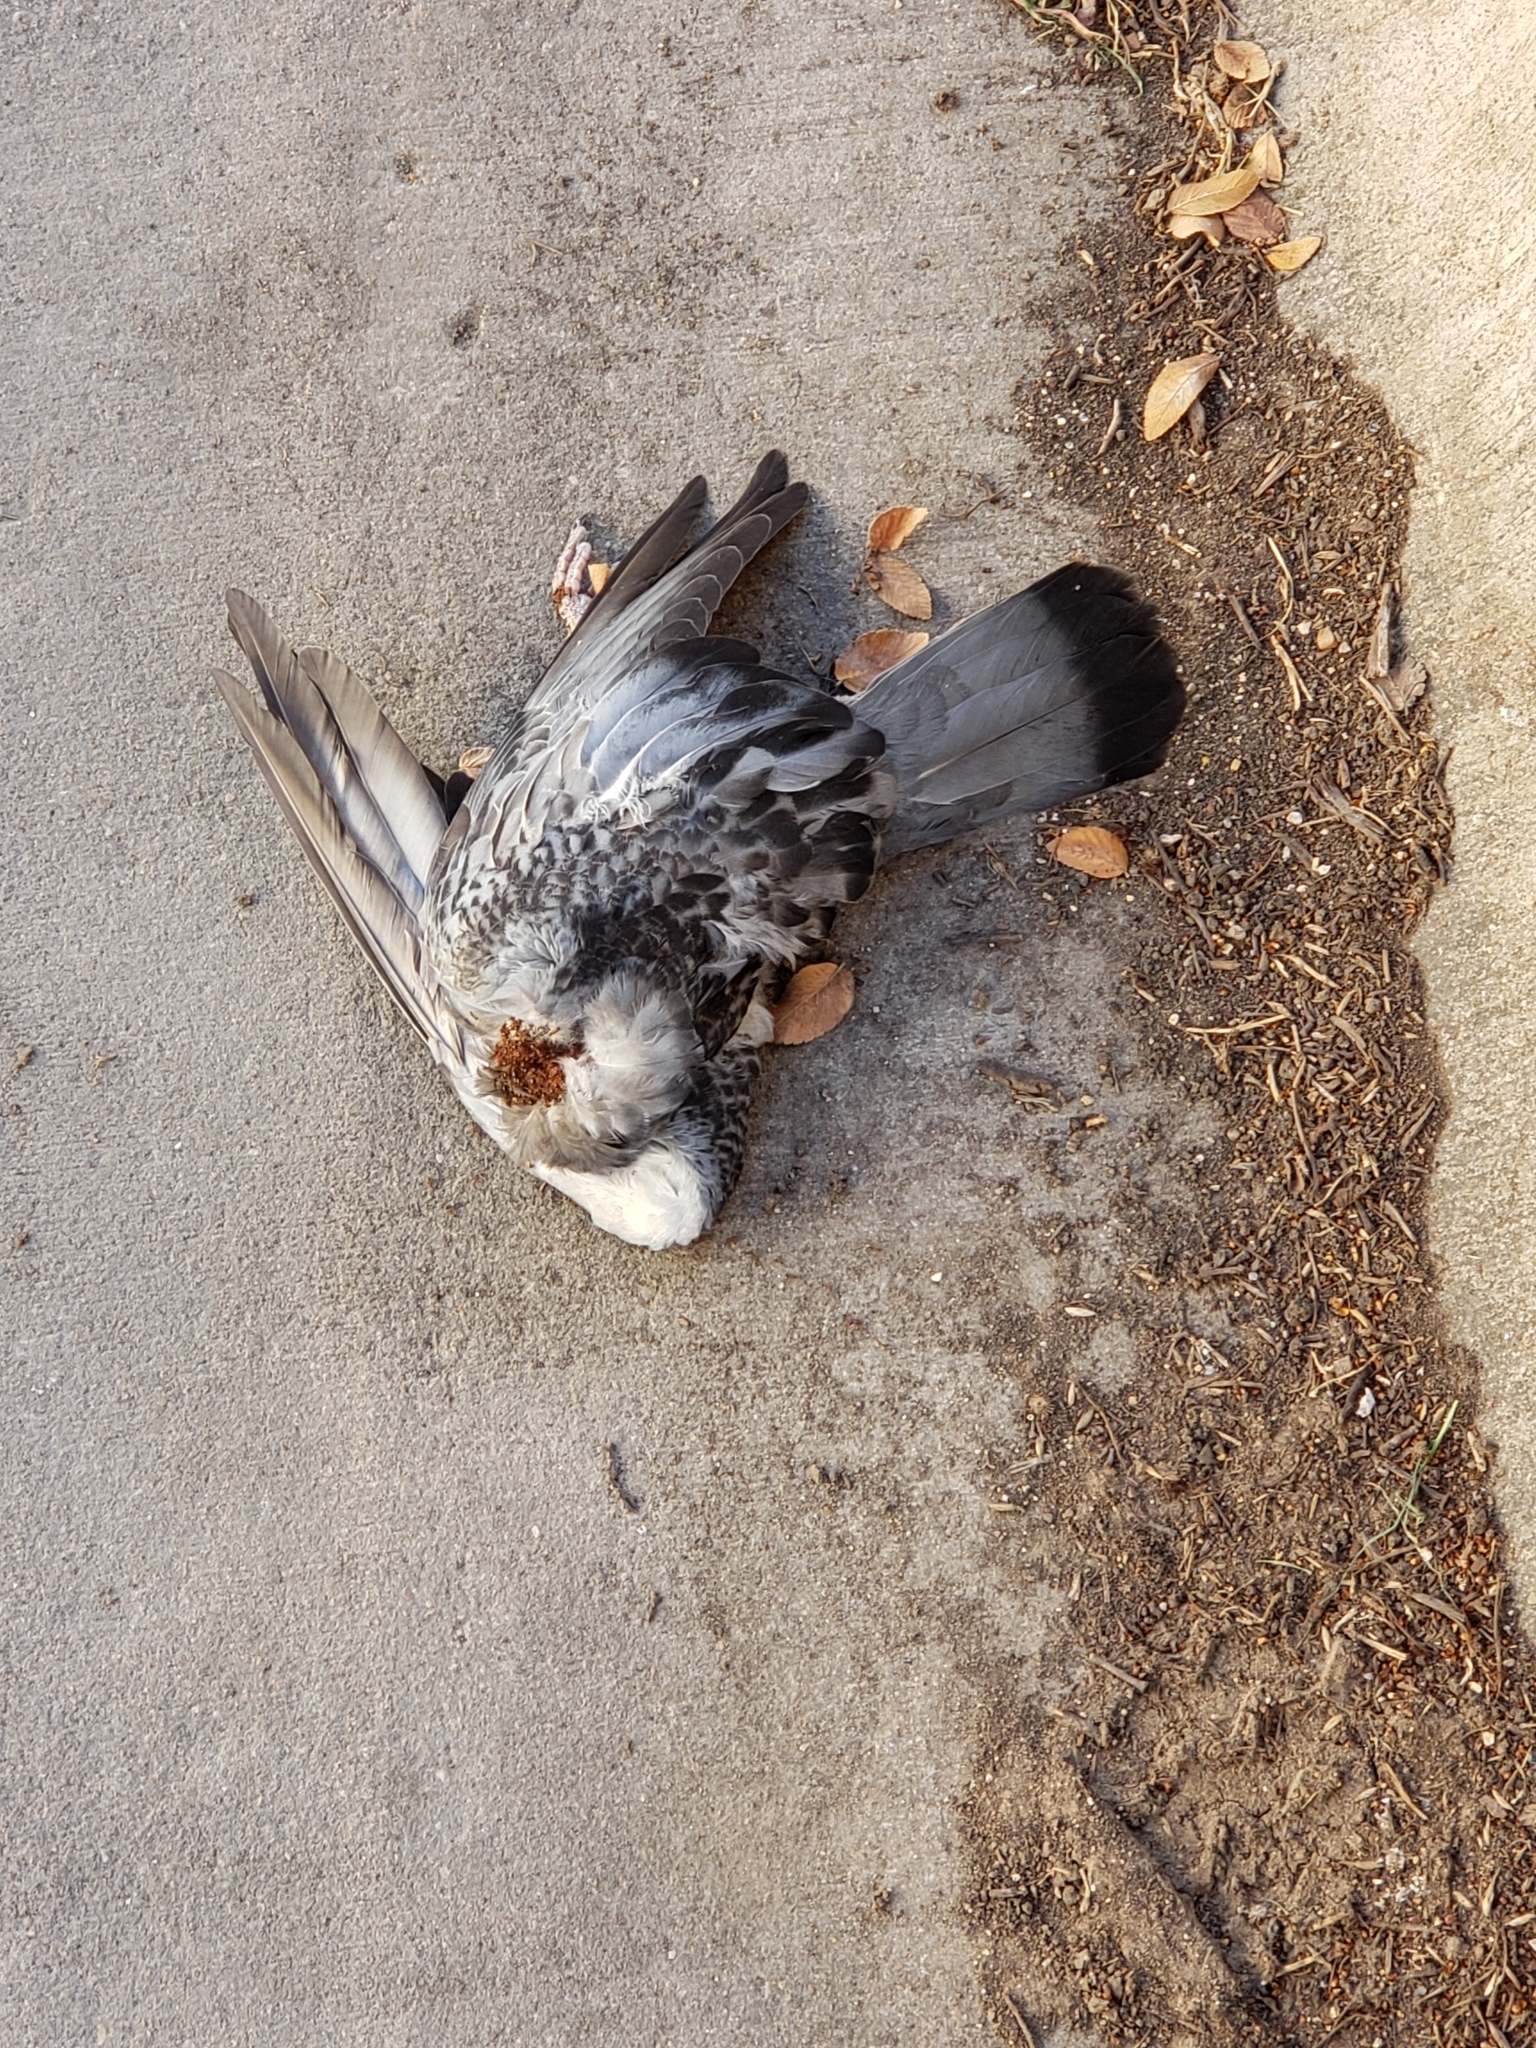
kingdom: Animalia
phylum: Chordata
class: Aves
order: Columbiformes
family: Columbidae
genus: Columba
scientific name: Columba livia
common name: Rock pigeon
